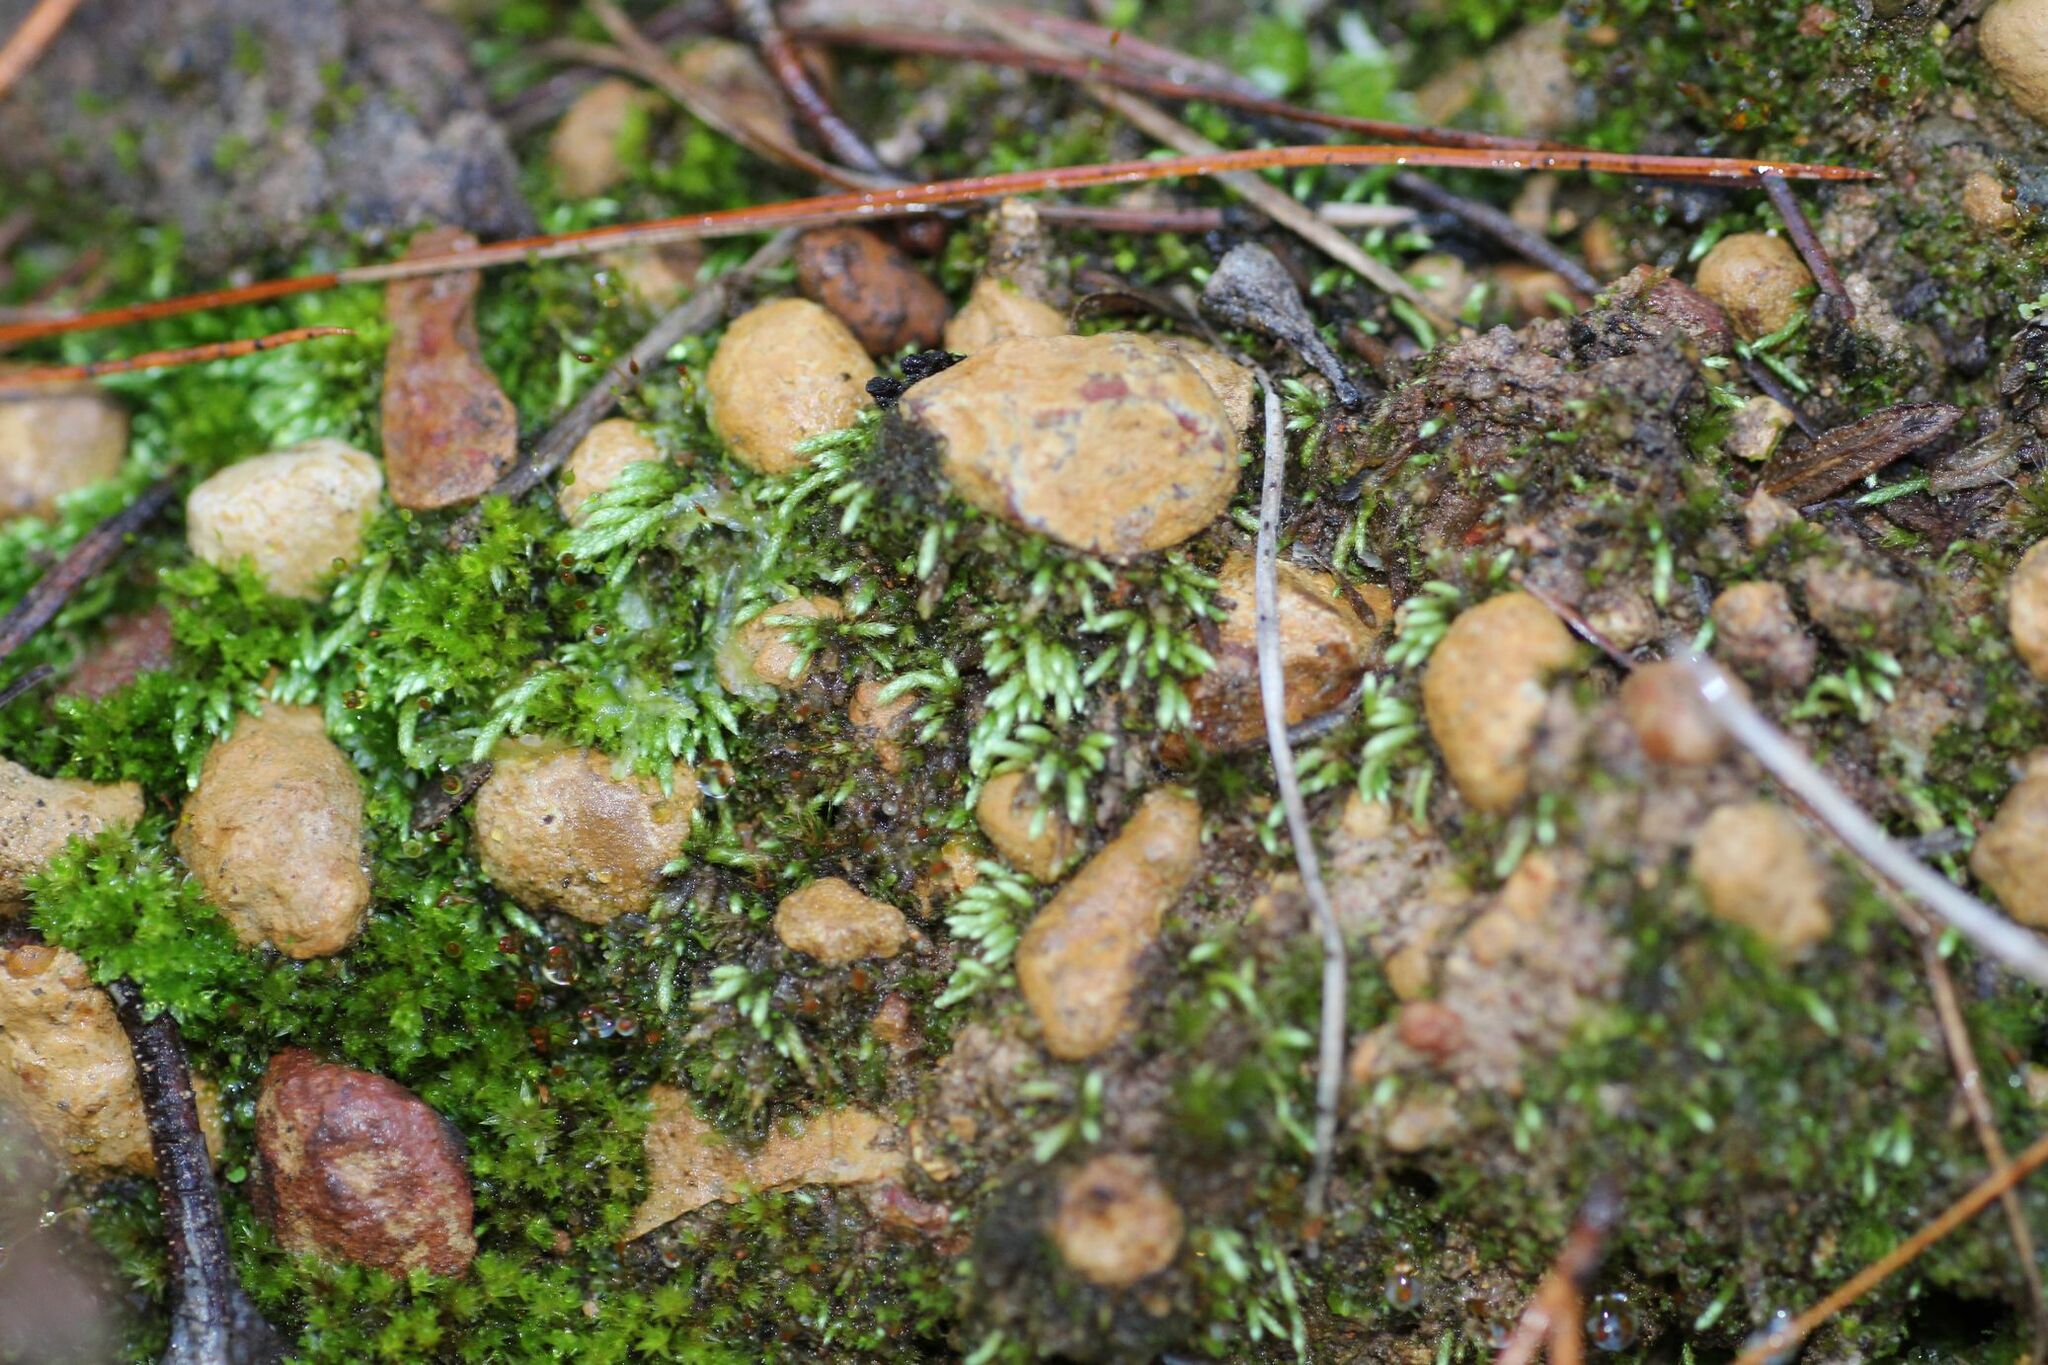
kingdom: Plantae
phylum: Bryophyta
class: Bryopsida
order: Bryales
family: Bryaceae
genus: Bryum
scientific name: Bryum argenteum
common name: Silver-moss
